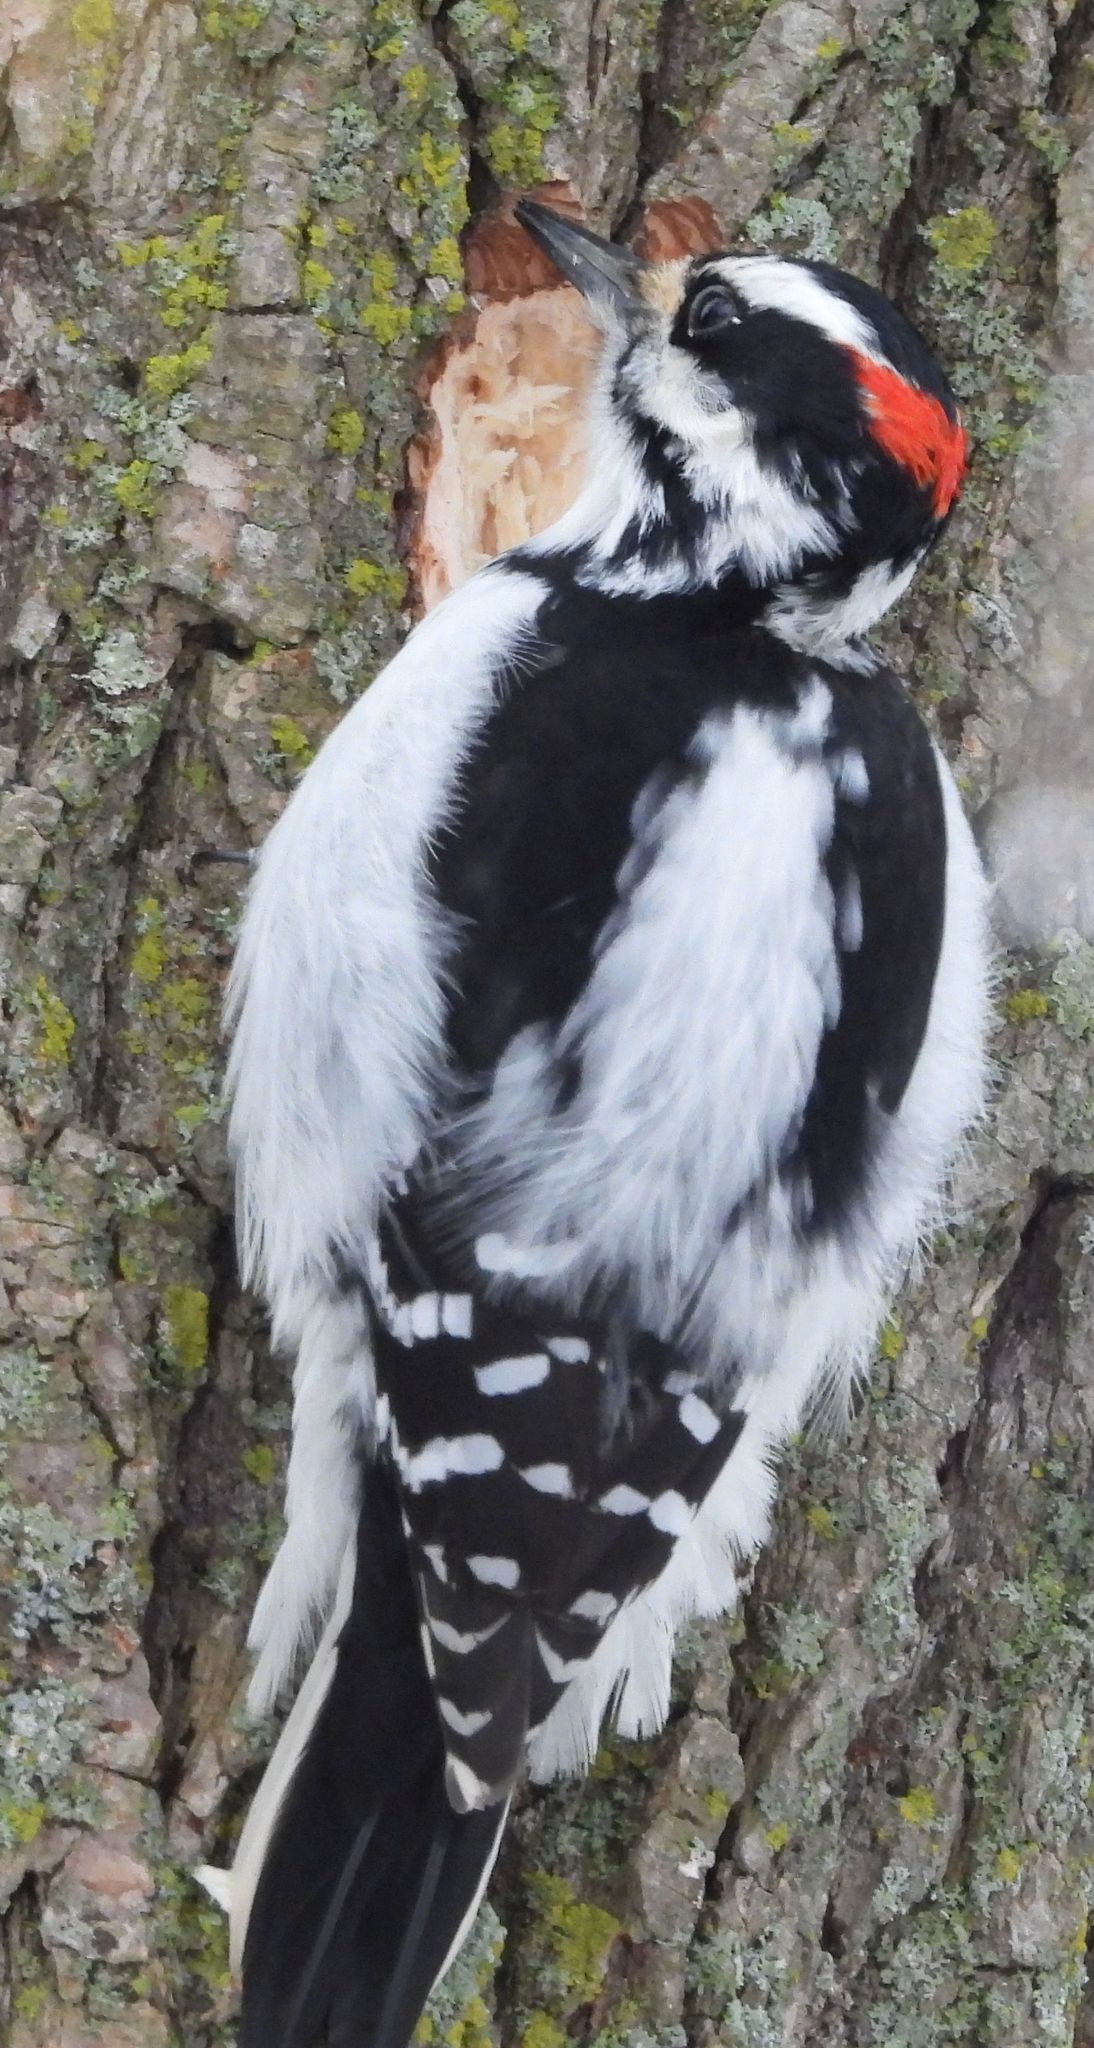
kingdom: Animalia
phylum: Chordata
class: Aves
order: Piciformes
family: Picidae
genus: Leuconotopicus
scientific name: Leuconotopicus villosus
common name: Hairy woodpecker
